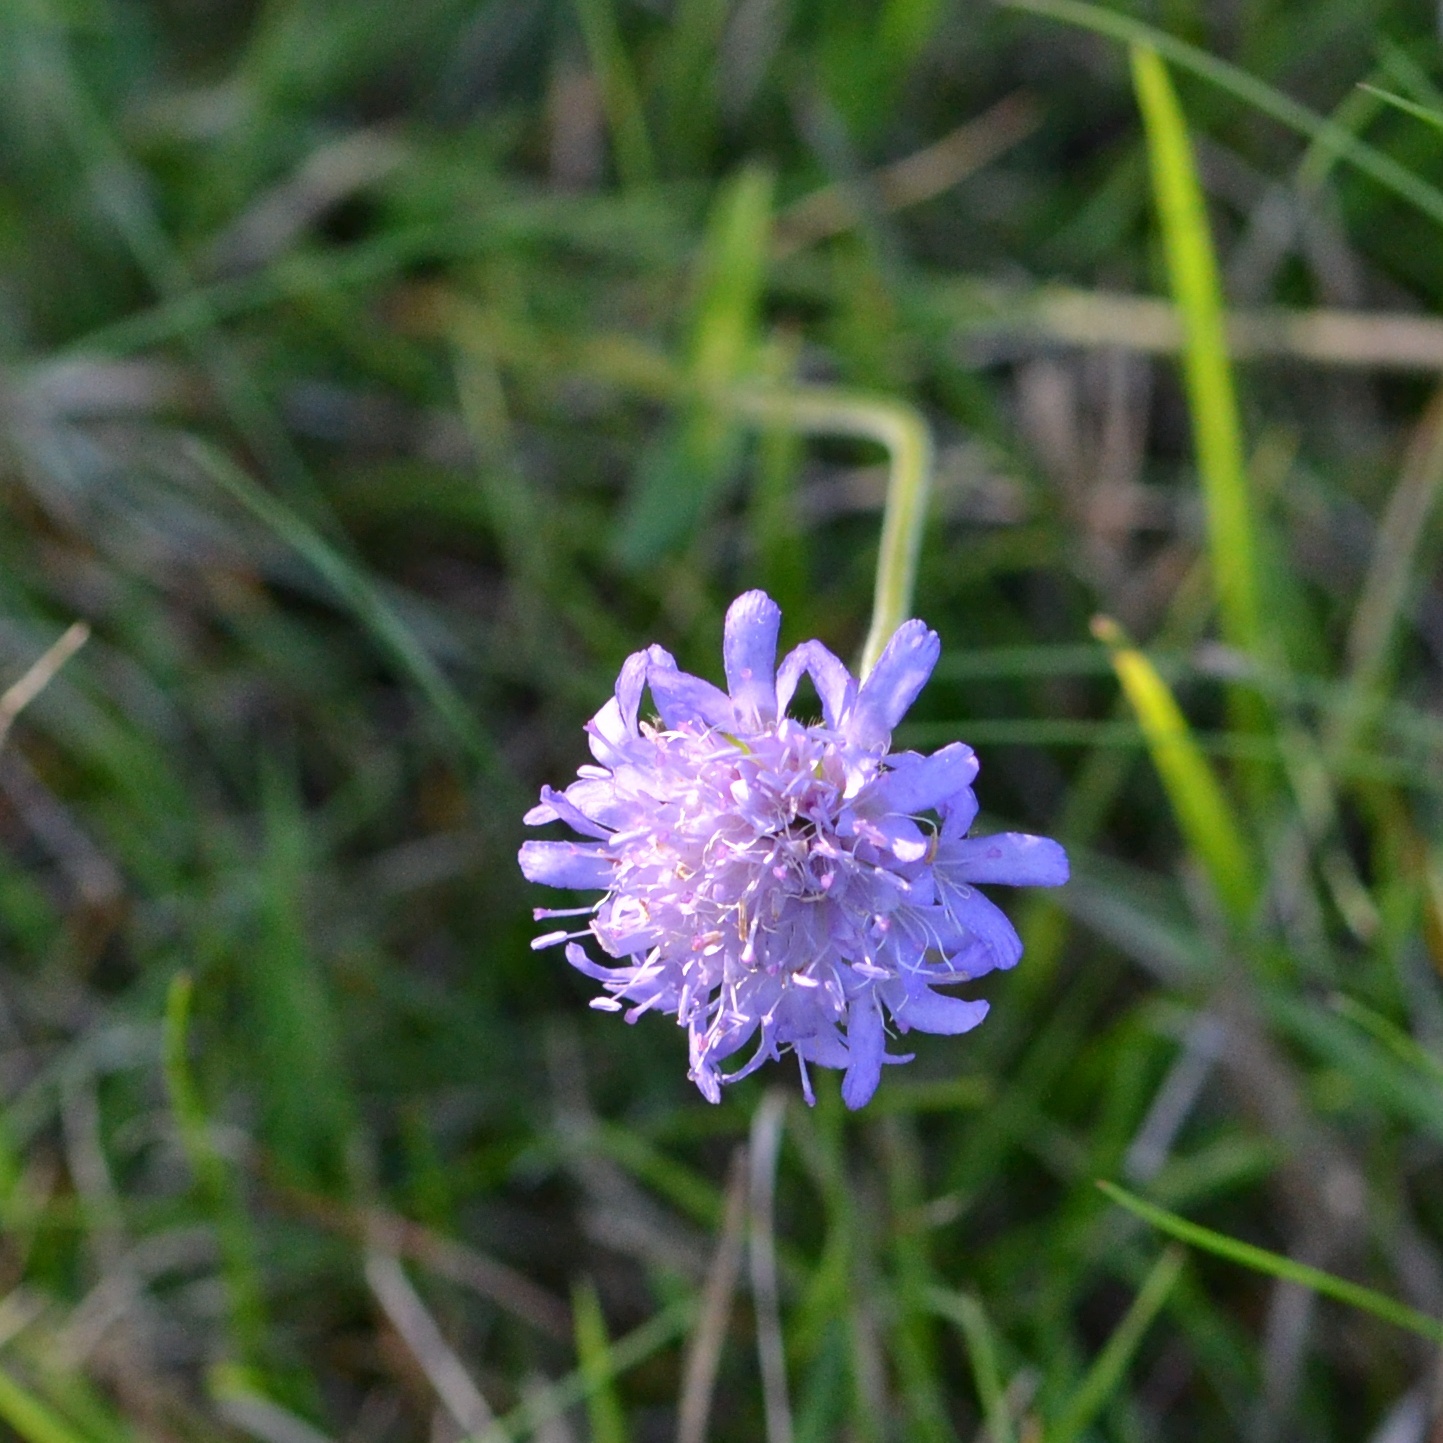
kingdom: Plantae
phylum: Tracheophyta
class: Magnoliopsida
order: Dipsacales
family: Caprifoliaceae
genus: Knautia
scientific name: Knautia arvensis
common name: Field scabiosa
